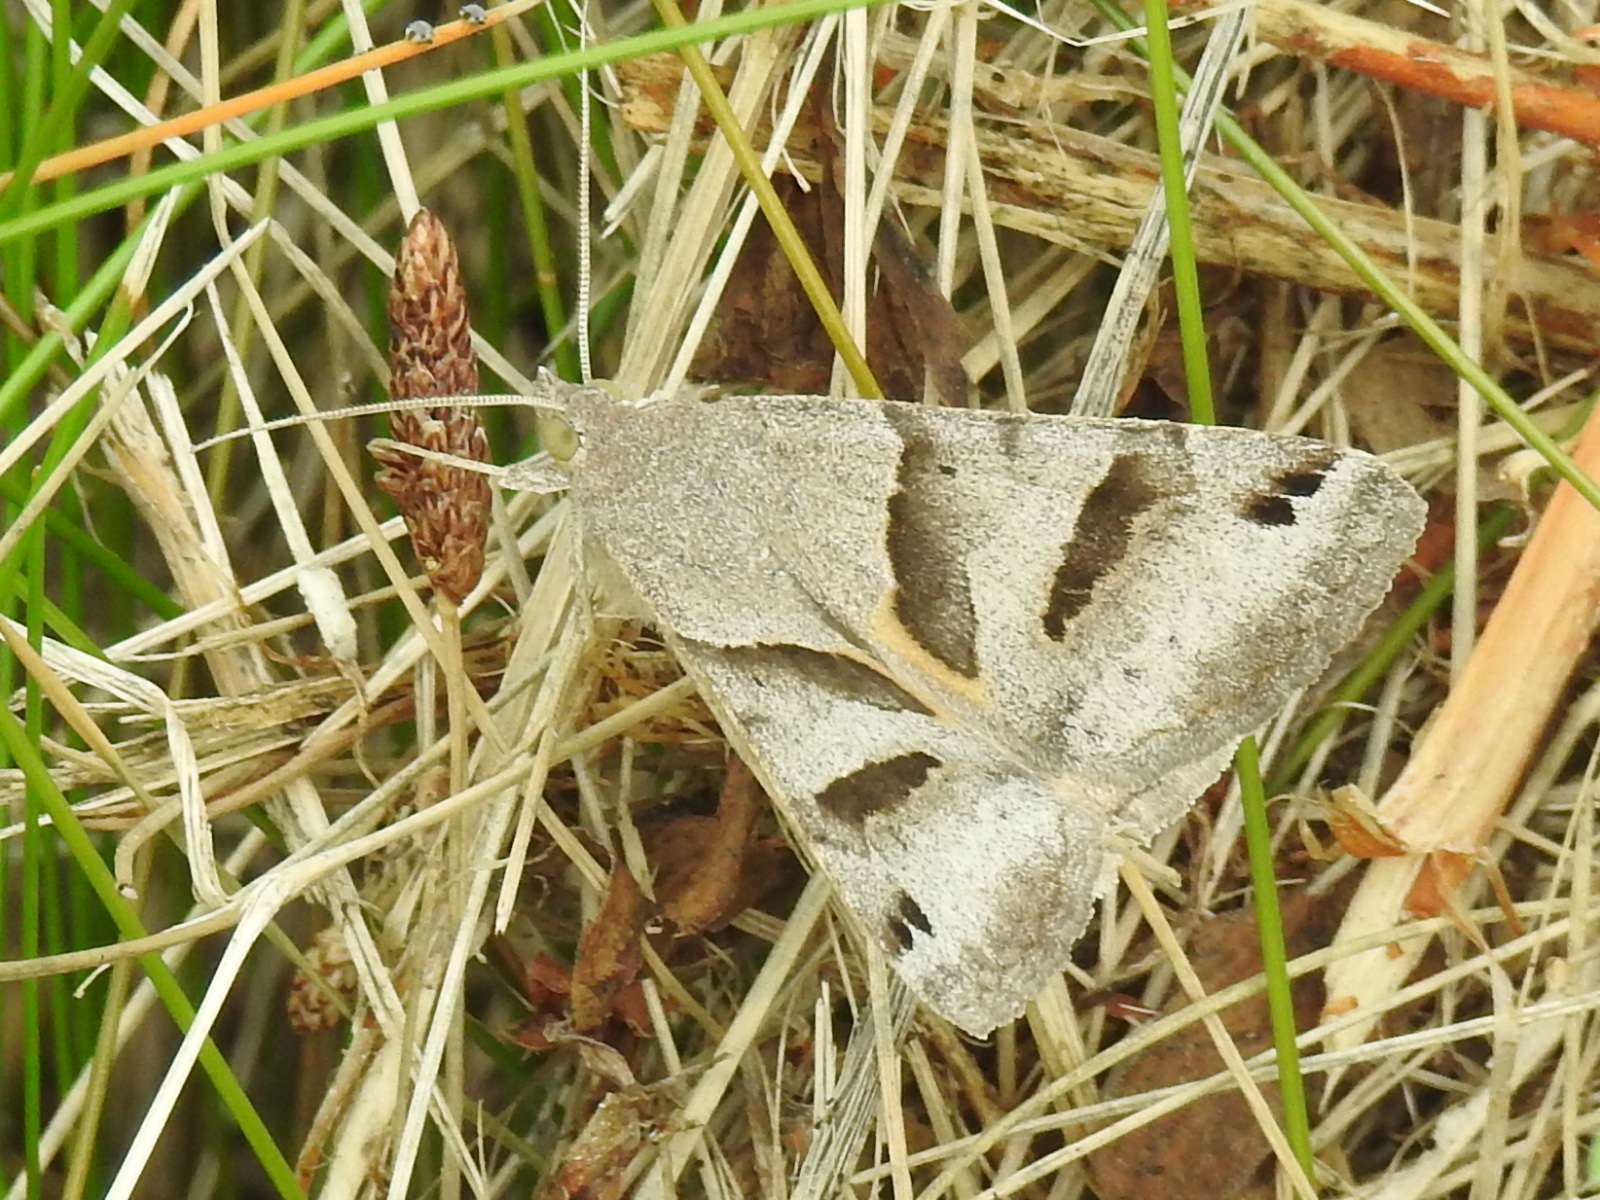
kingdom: Animalia
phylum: Arthropoda
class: Insecta
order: Lepidoptera
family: Erebidae
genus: Caenurgina
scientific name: Caenurgina erechtea
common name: Forage looper moth
